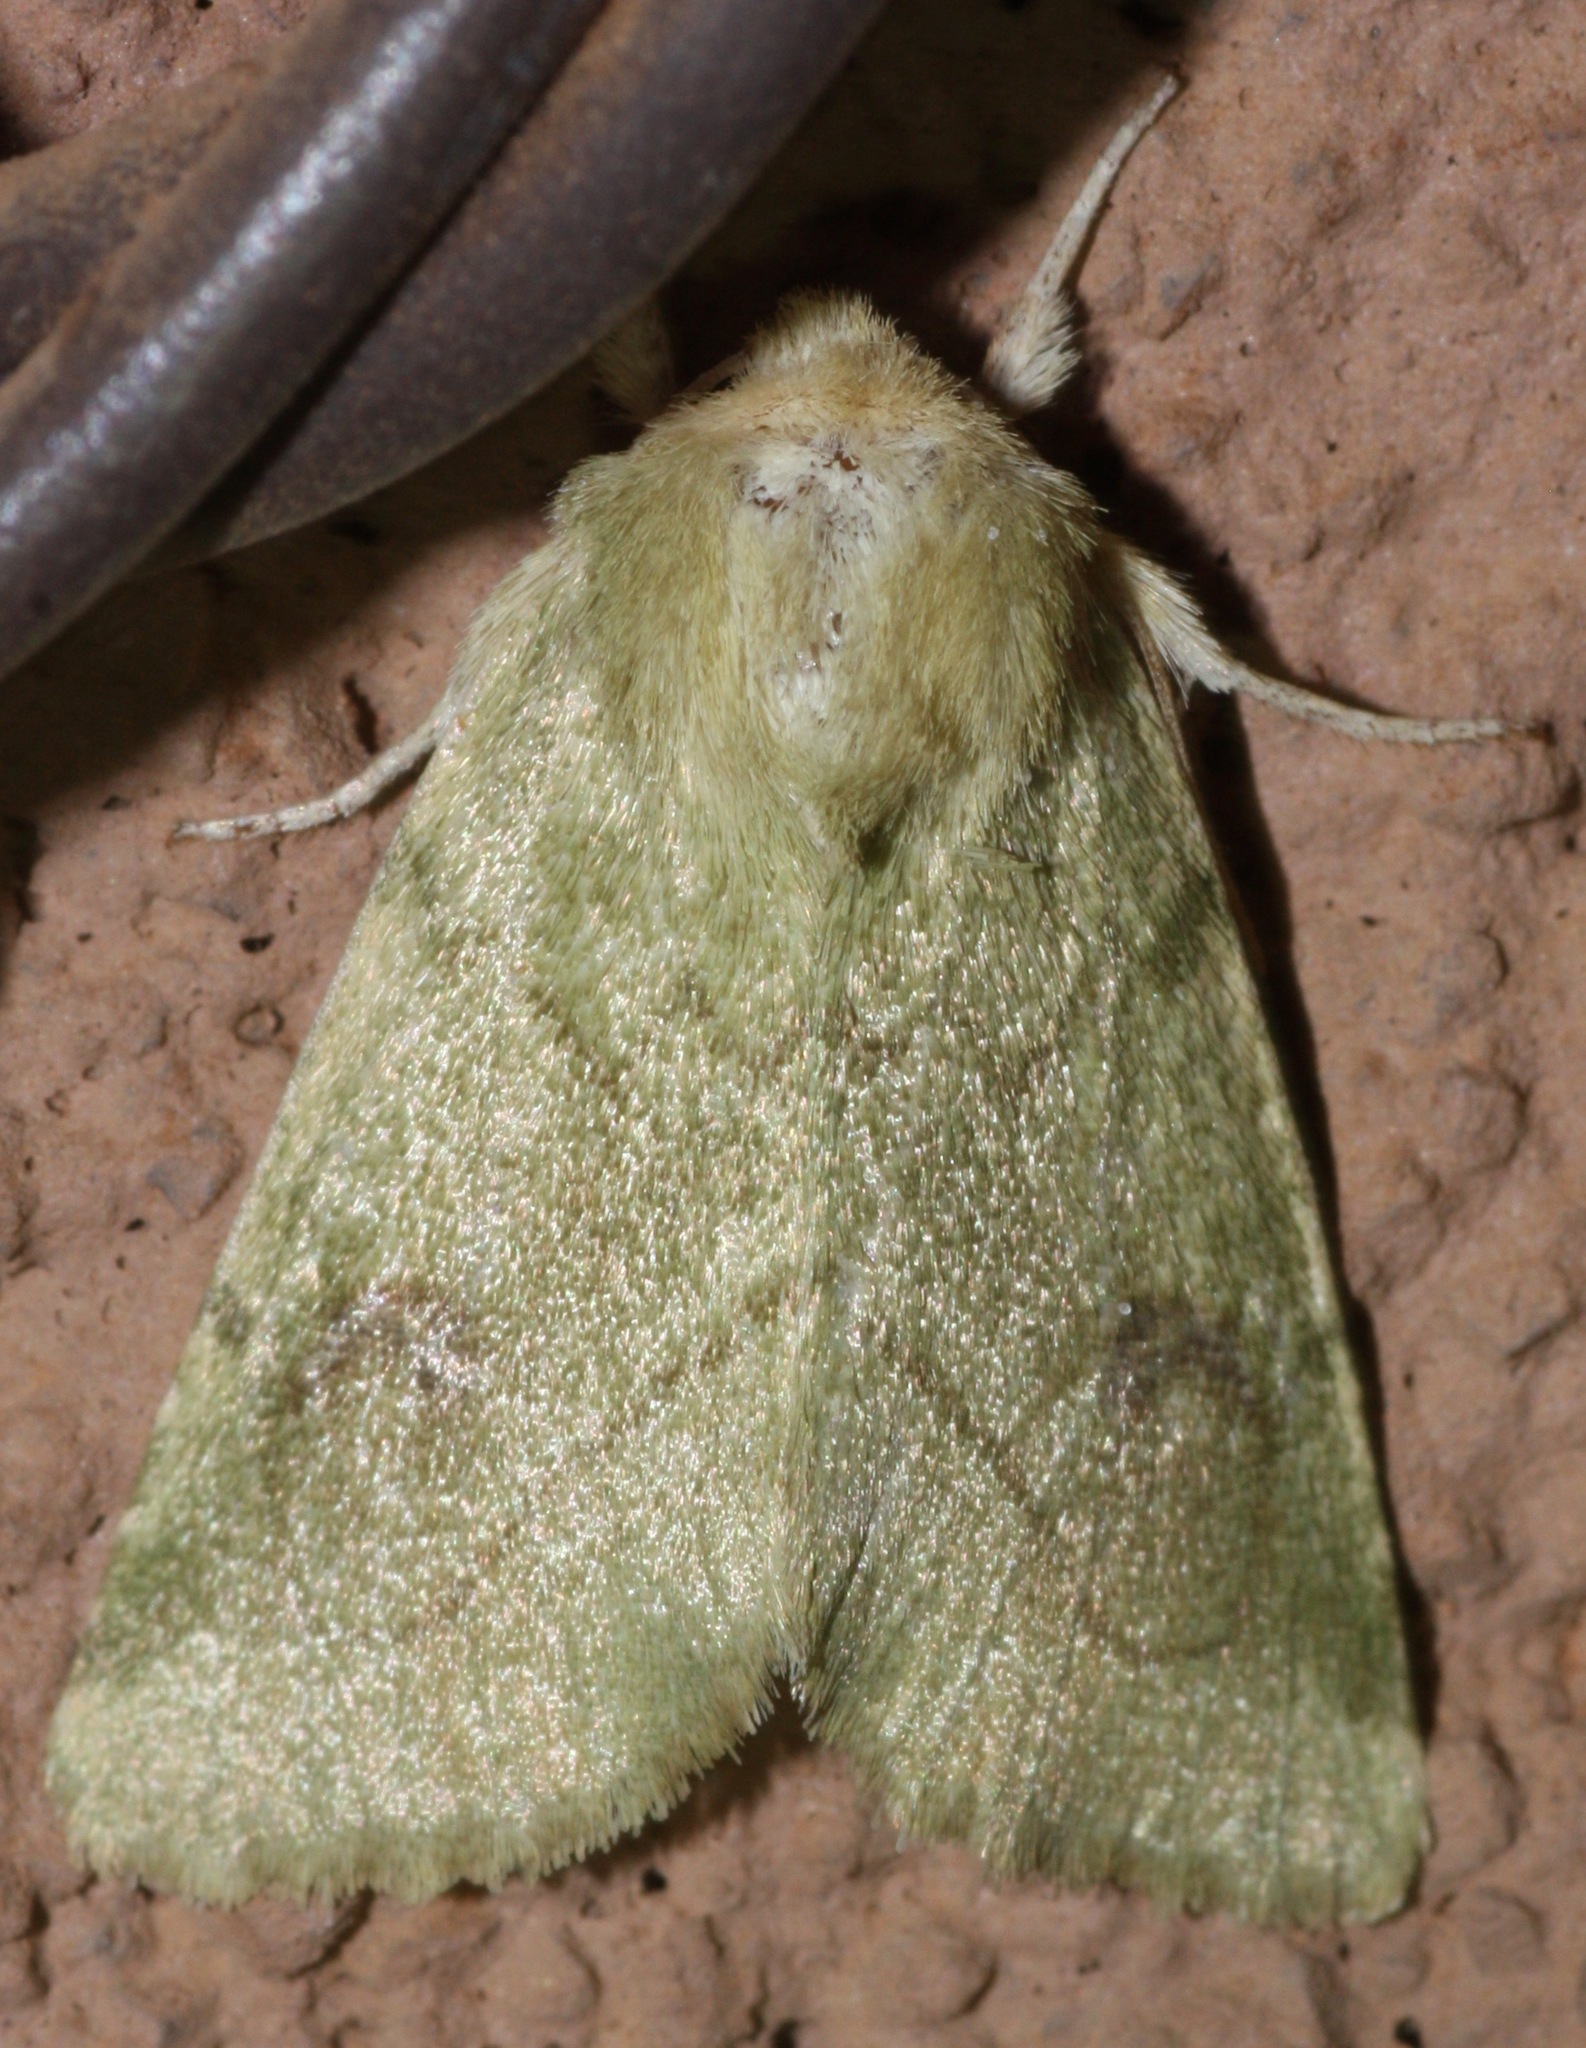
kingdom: Animalia
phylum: Arthropoda
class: Insecta
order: Lepidoptera
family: Noctuidae
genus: Zotheca
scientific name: Zotheca tranquilla
